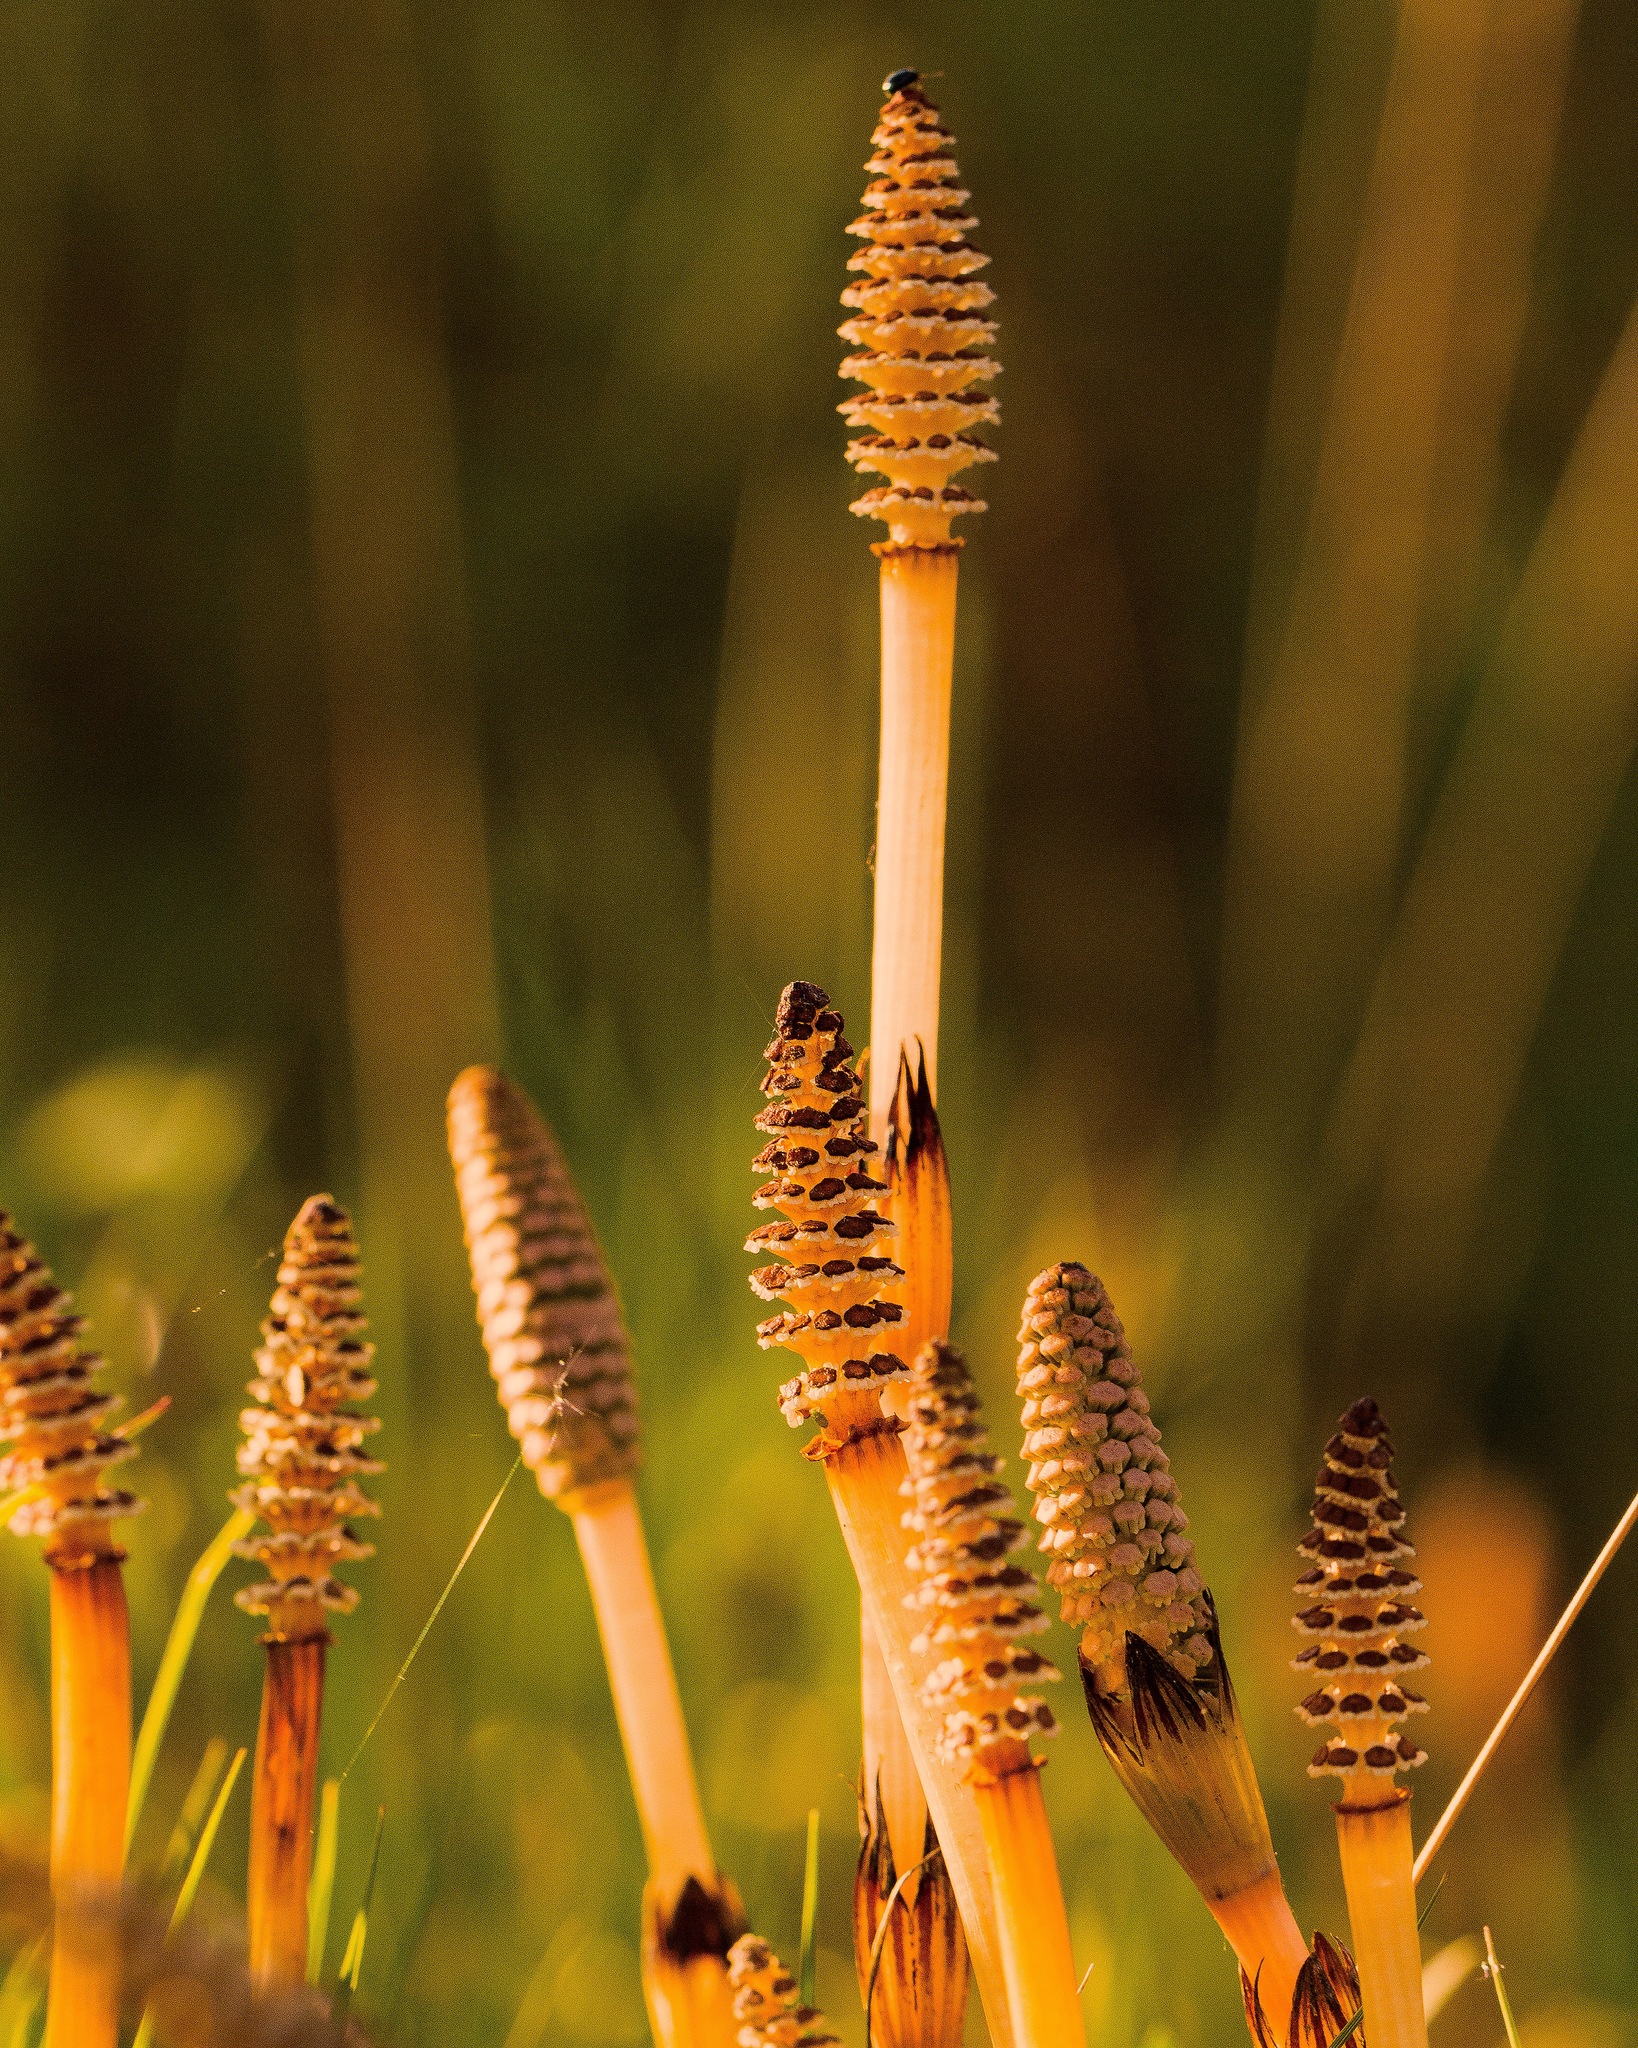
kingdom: Plantae
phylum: Tracheophyta
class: Polypodiopsida
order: Equisetales
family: Equisetaceae
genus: Equisetum
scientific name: Equisetum arvense
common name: Field horsetail
